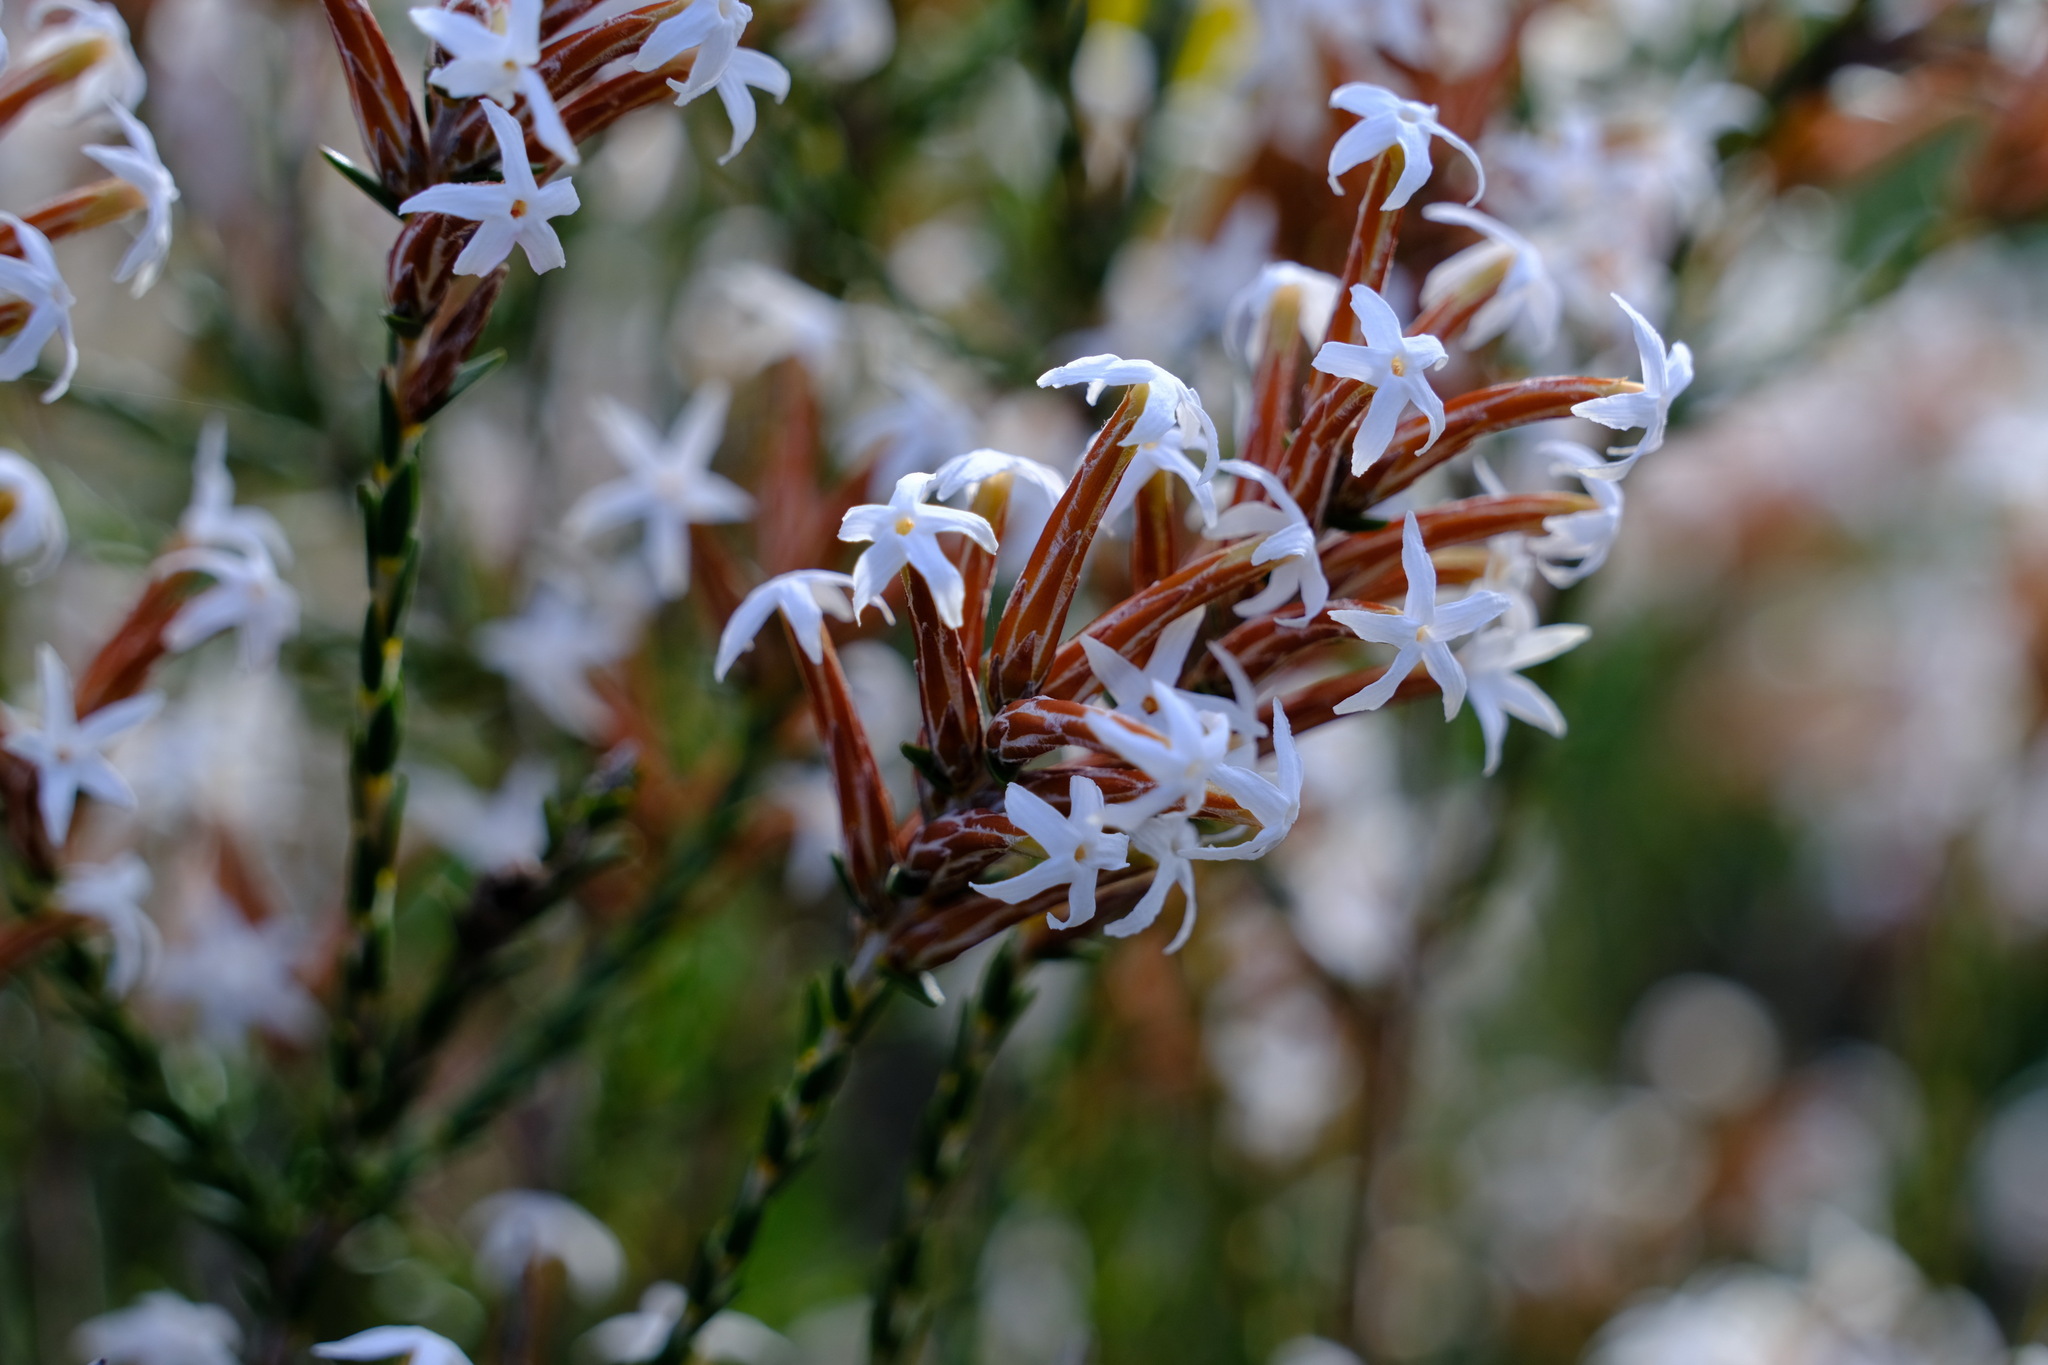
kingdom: Plantae
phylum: Tracheophyta
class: Magnoliopsida
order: Ericales
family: Ericaceae
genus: Lysinema
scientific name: Lysinema pentapetalum
